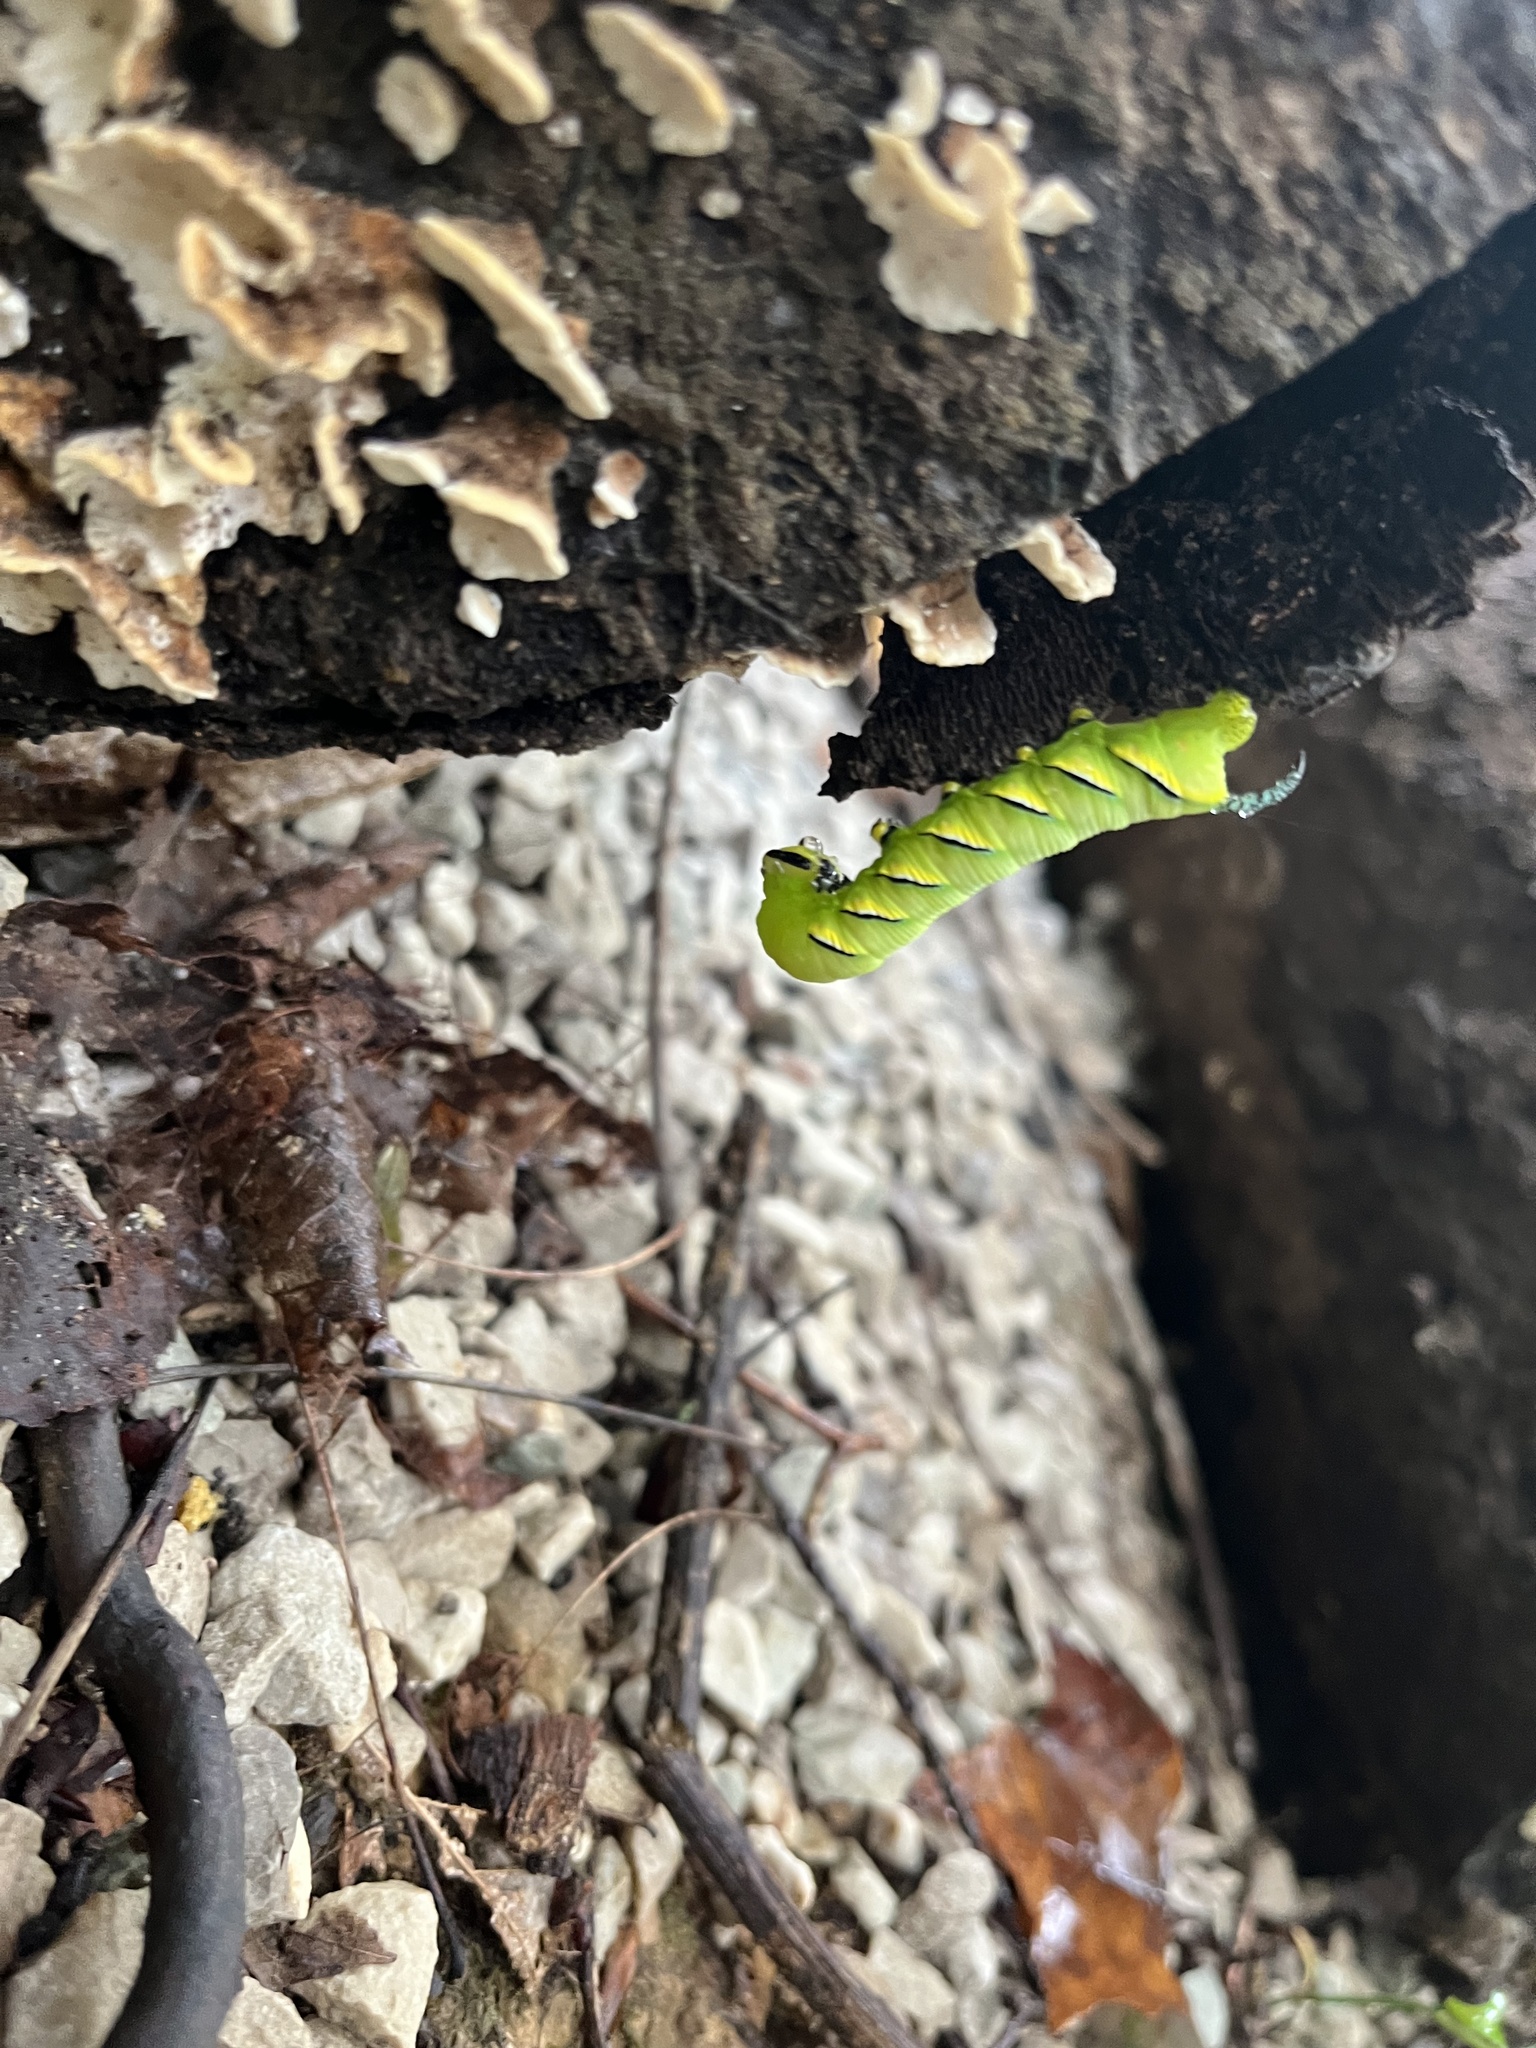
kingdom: Animalia
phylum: Arthropoda
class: Insecta
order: Lepidoptera
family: Sphingidae
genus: Sphinx
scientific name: Sphinx kalmiae
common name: Laurel sphinx
